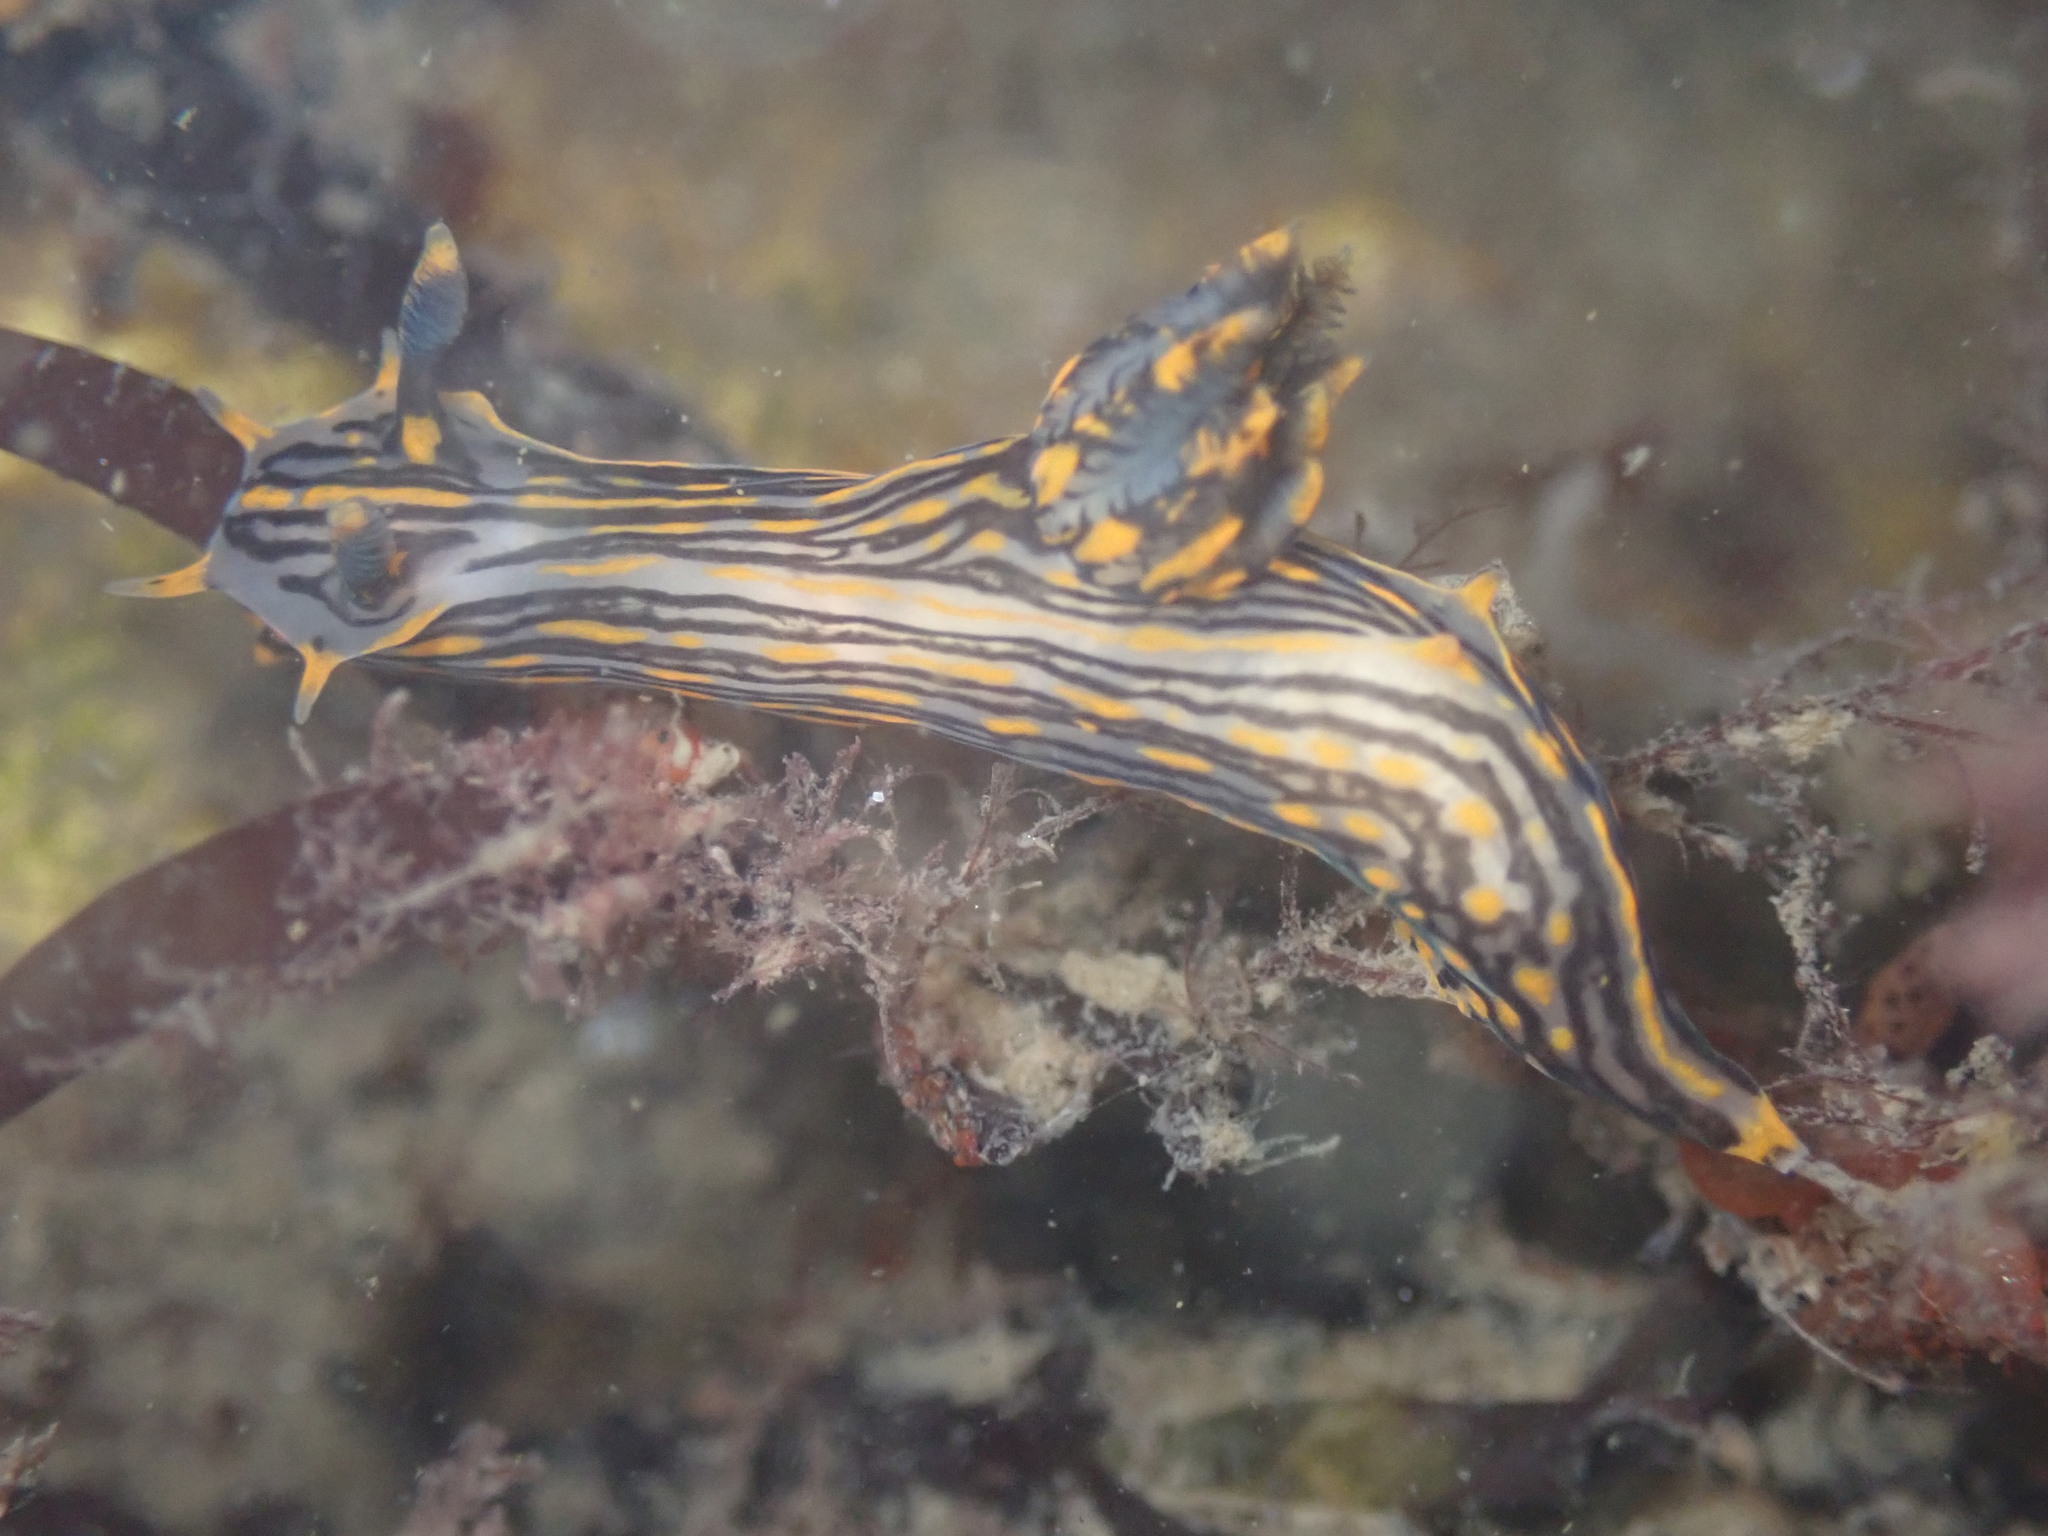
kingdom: Animalia
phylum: Mollusca
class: Gastropoda
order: Nudibranchia
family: Polyceridae
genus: Polycera
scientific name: Polycera atra
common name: Orange-spike polycera
